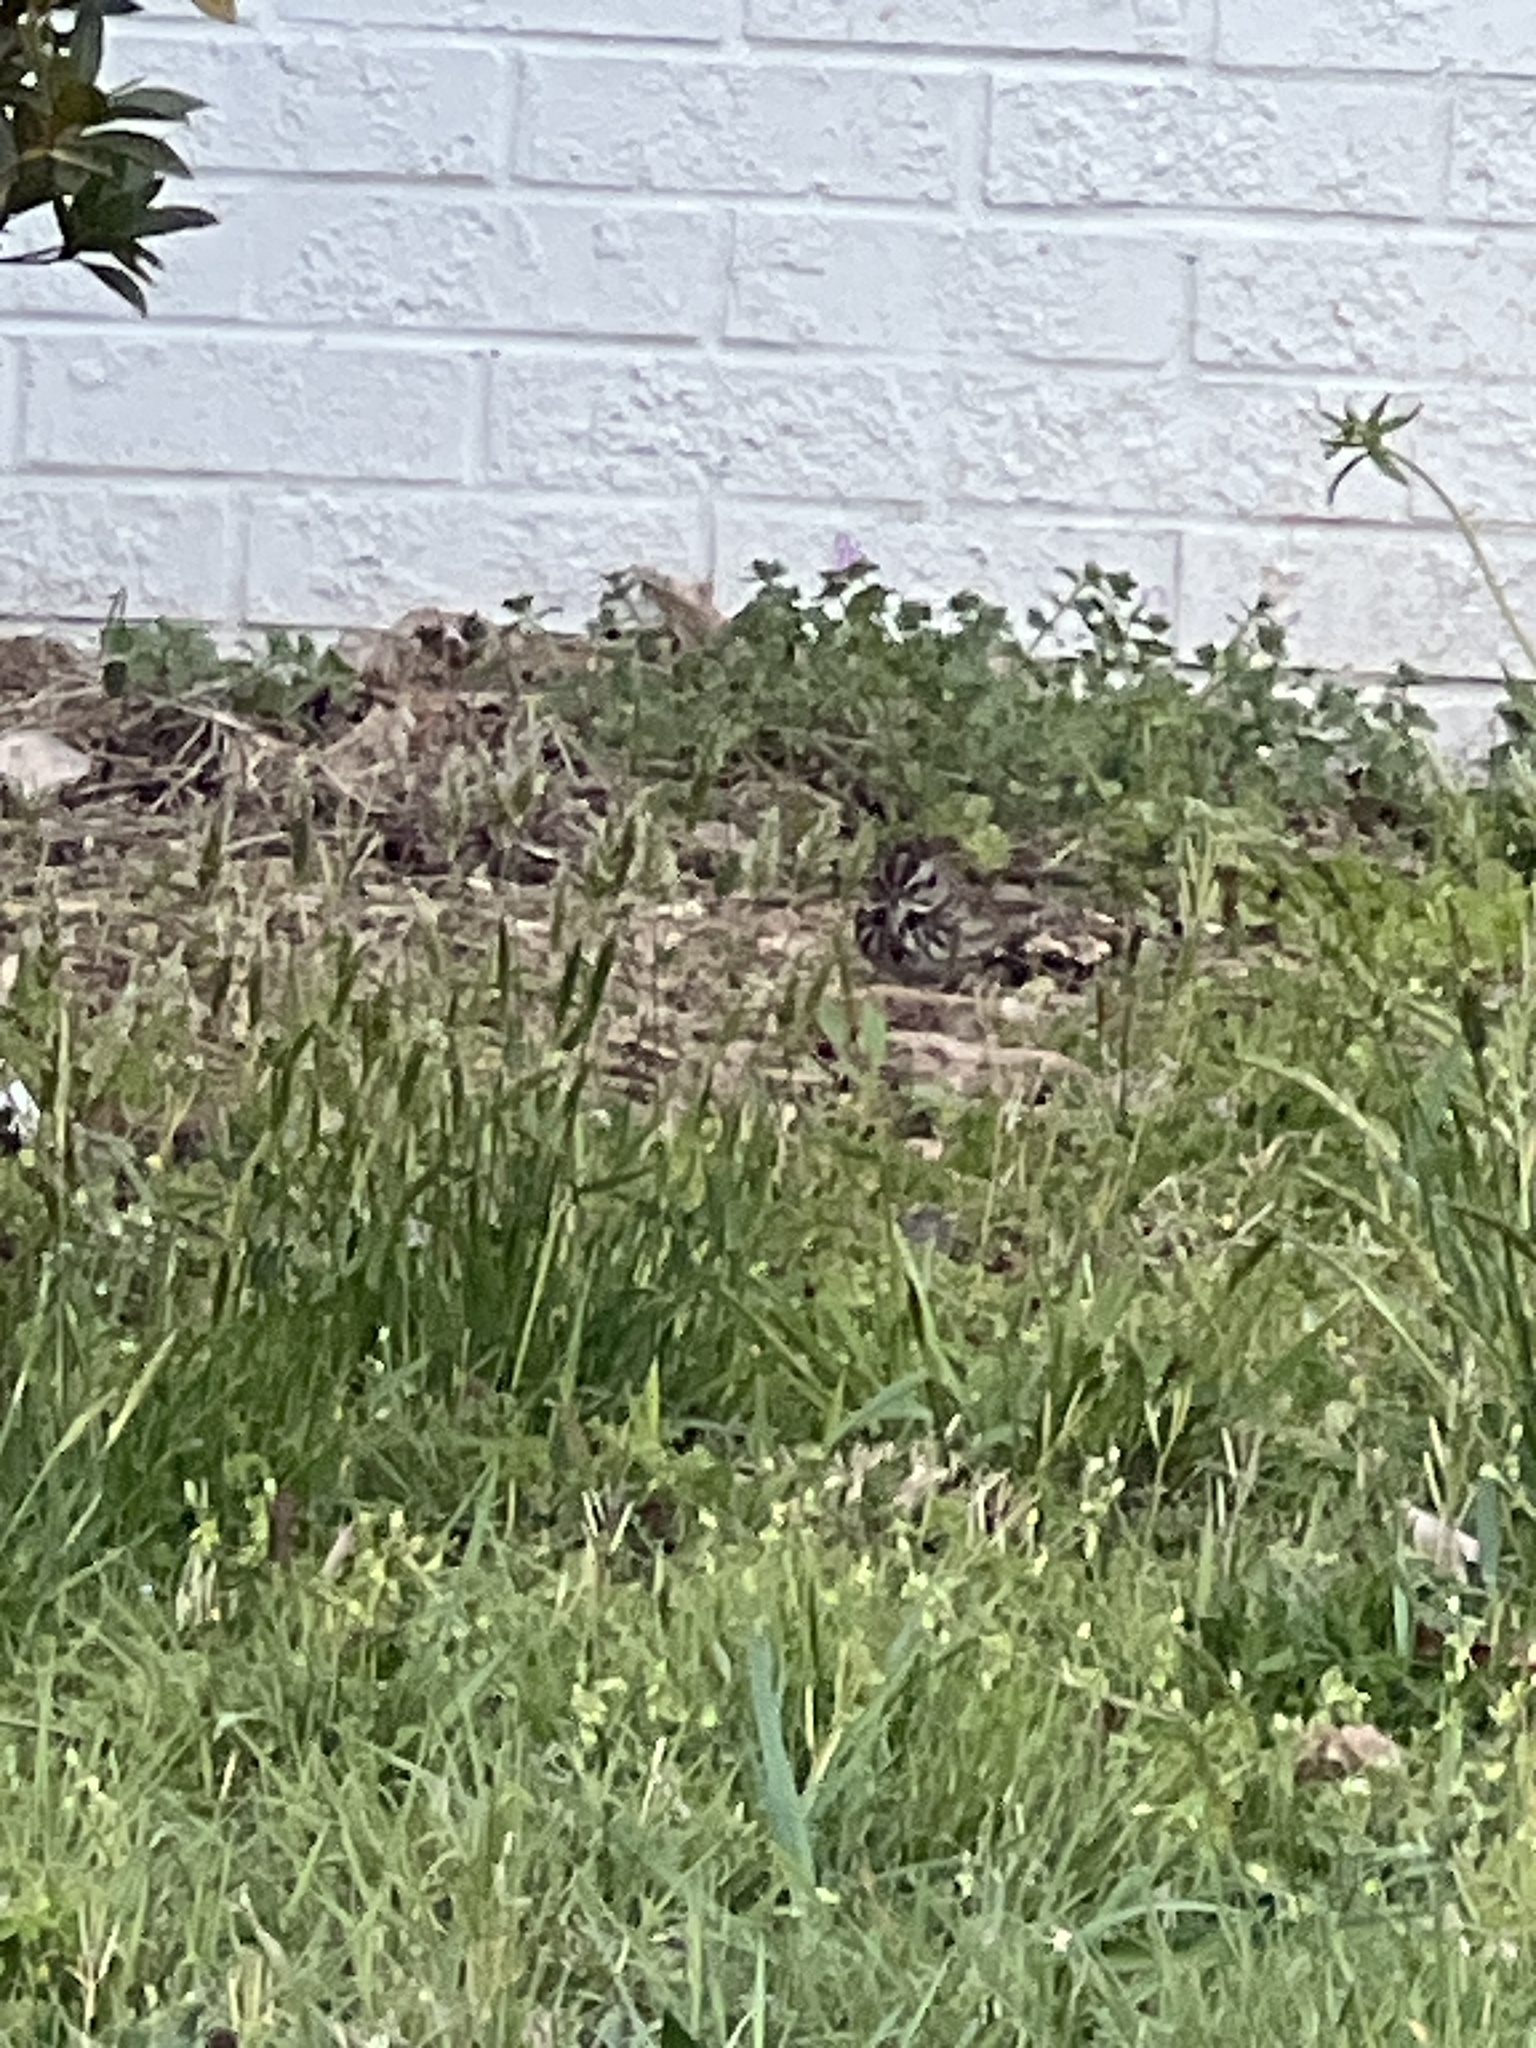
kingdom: Animalia
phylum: Chordata
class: Aves
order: Passeriformes
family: Passerellidae
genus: Melospiza
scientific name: Melospiza melodia
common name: Song sparrow
